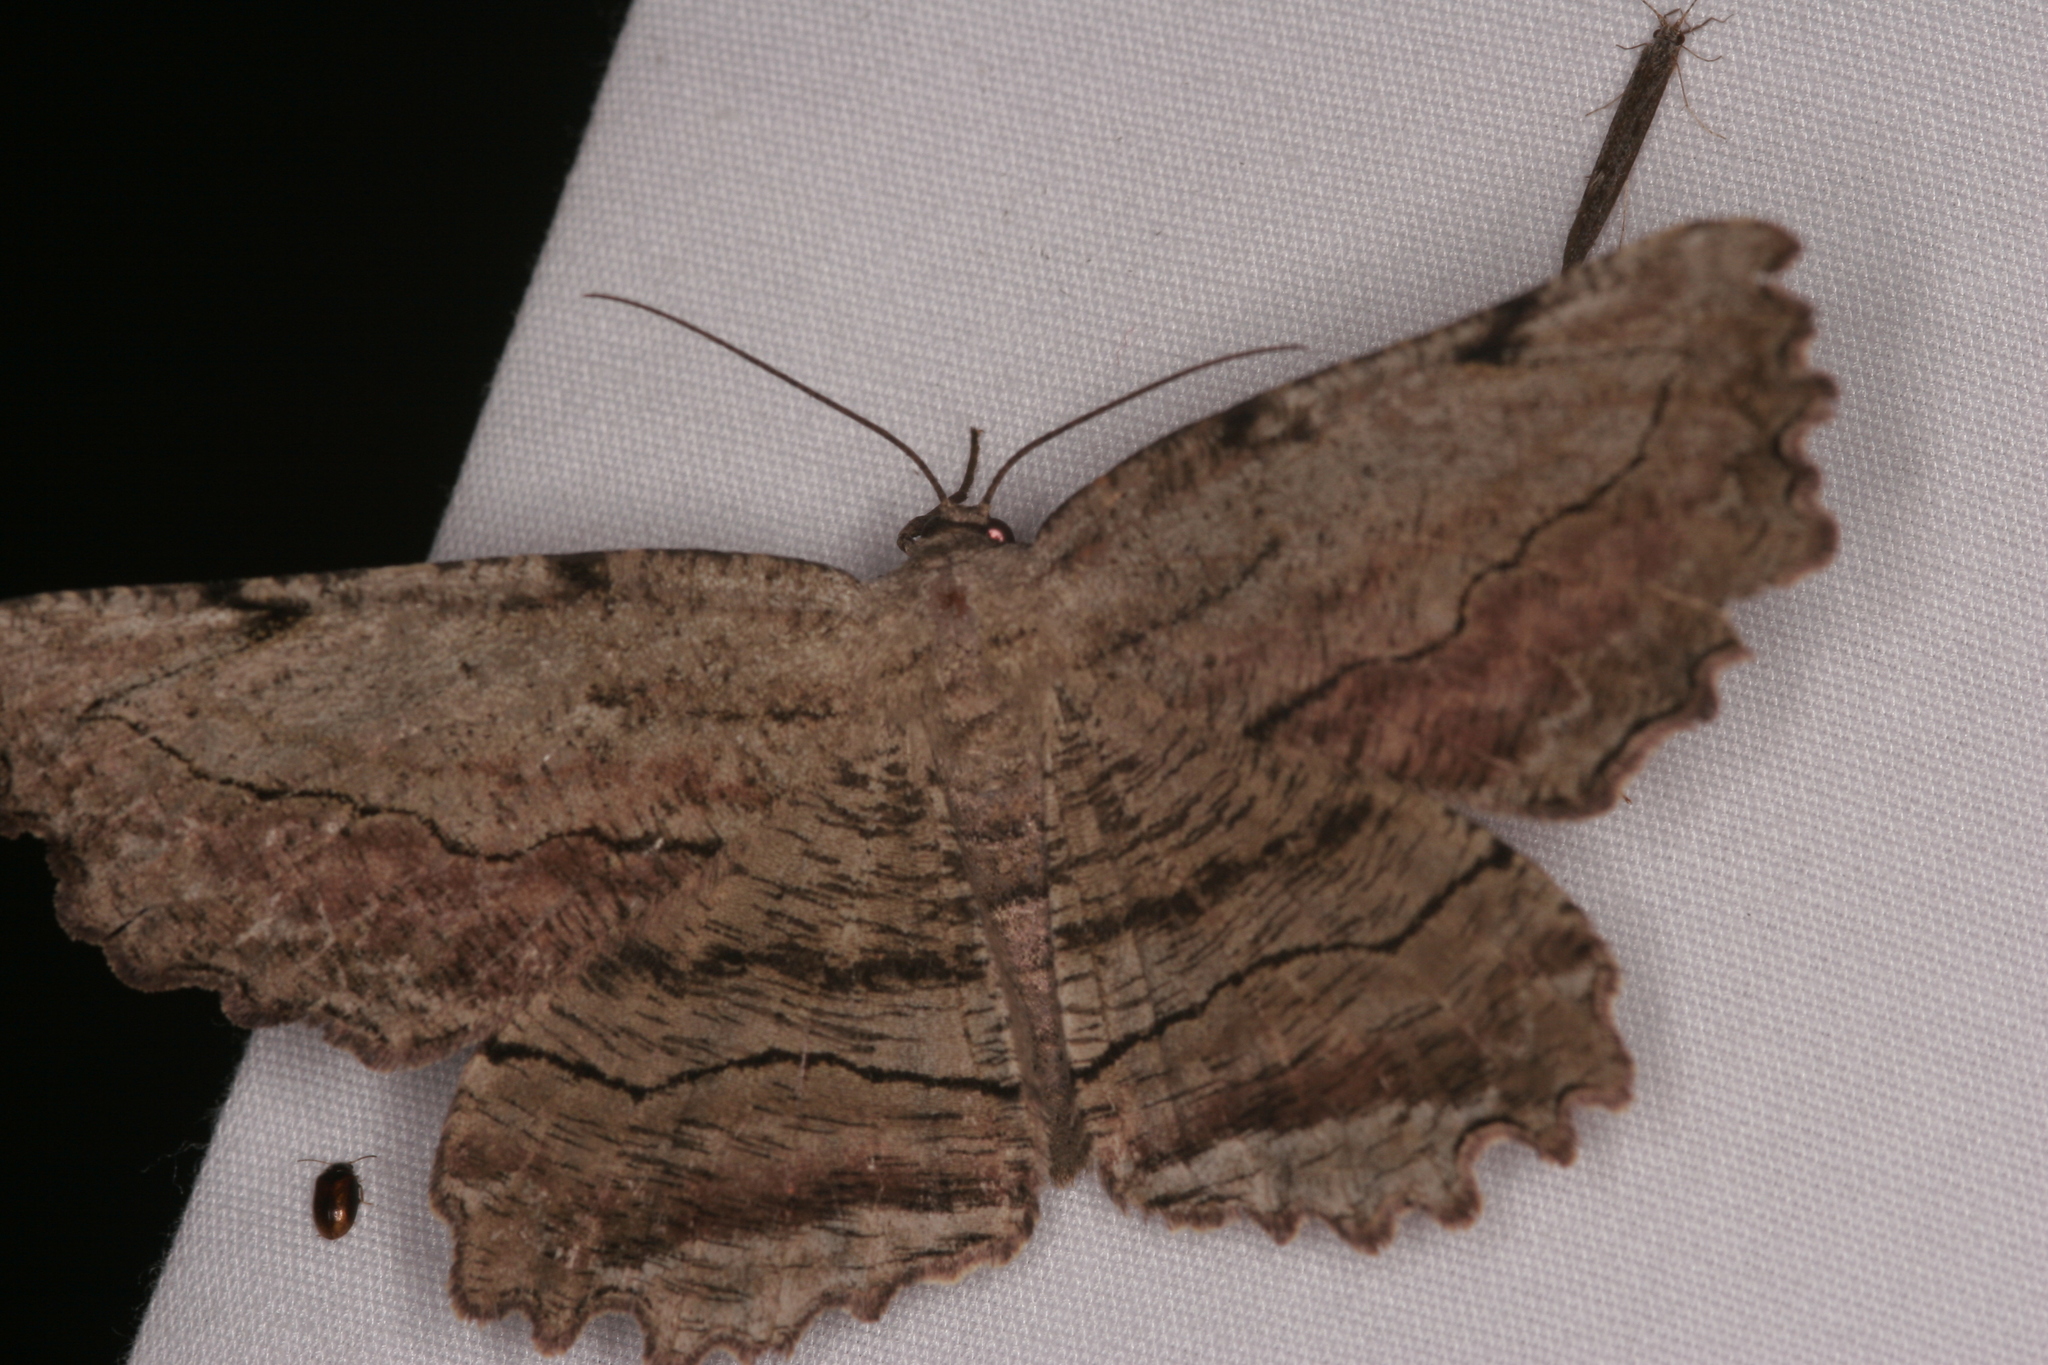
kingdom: Animalia
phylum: Arthropoda
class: Insecta
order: Lepidoptera
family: Geometridae
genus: Lytrosis
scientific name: Lytrosis unitaria
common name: Common lytrosis
